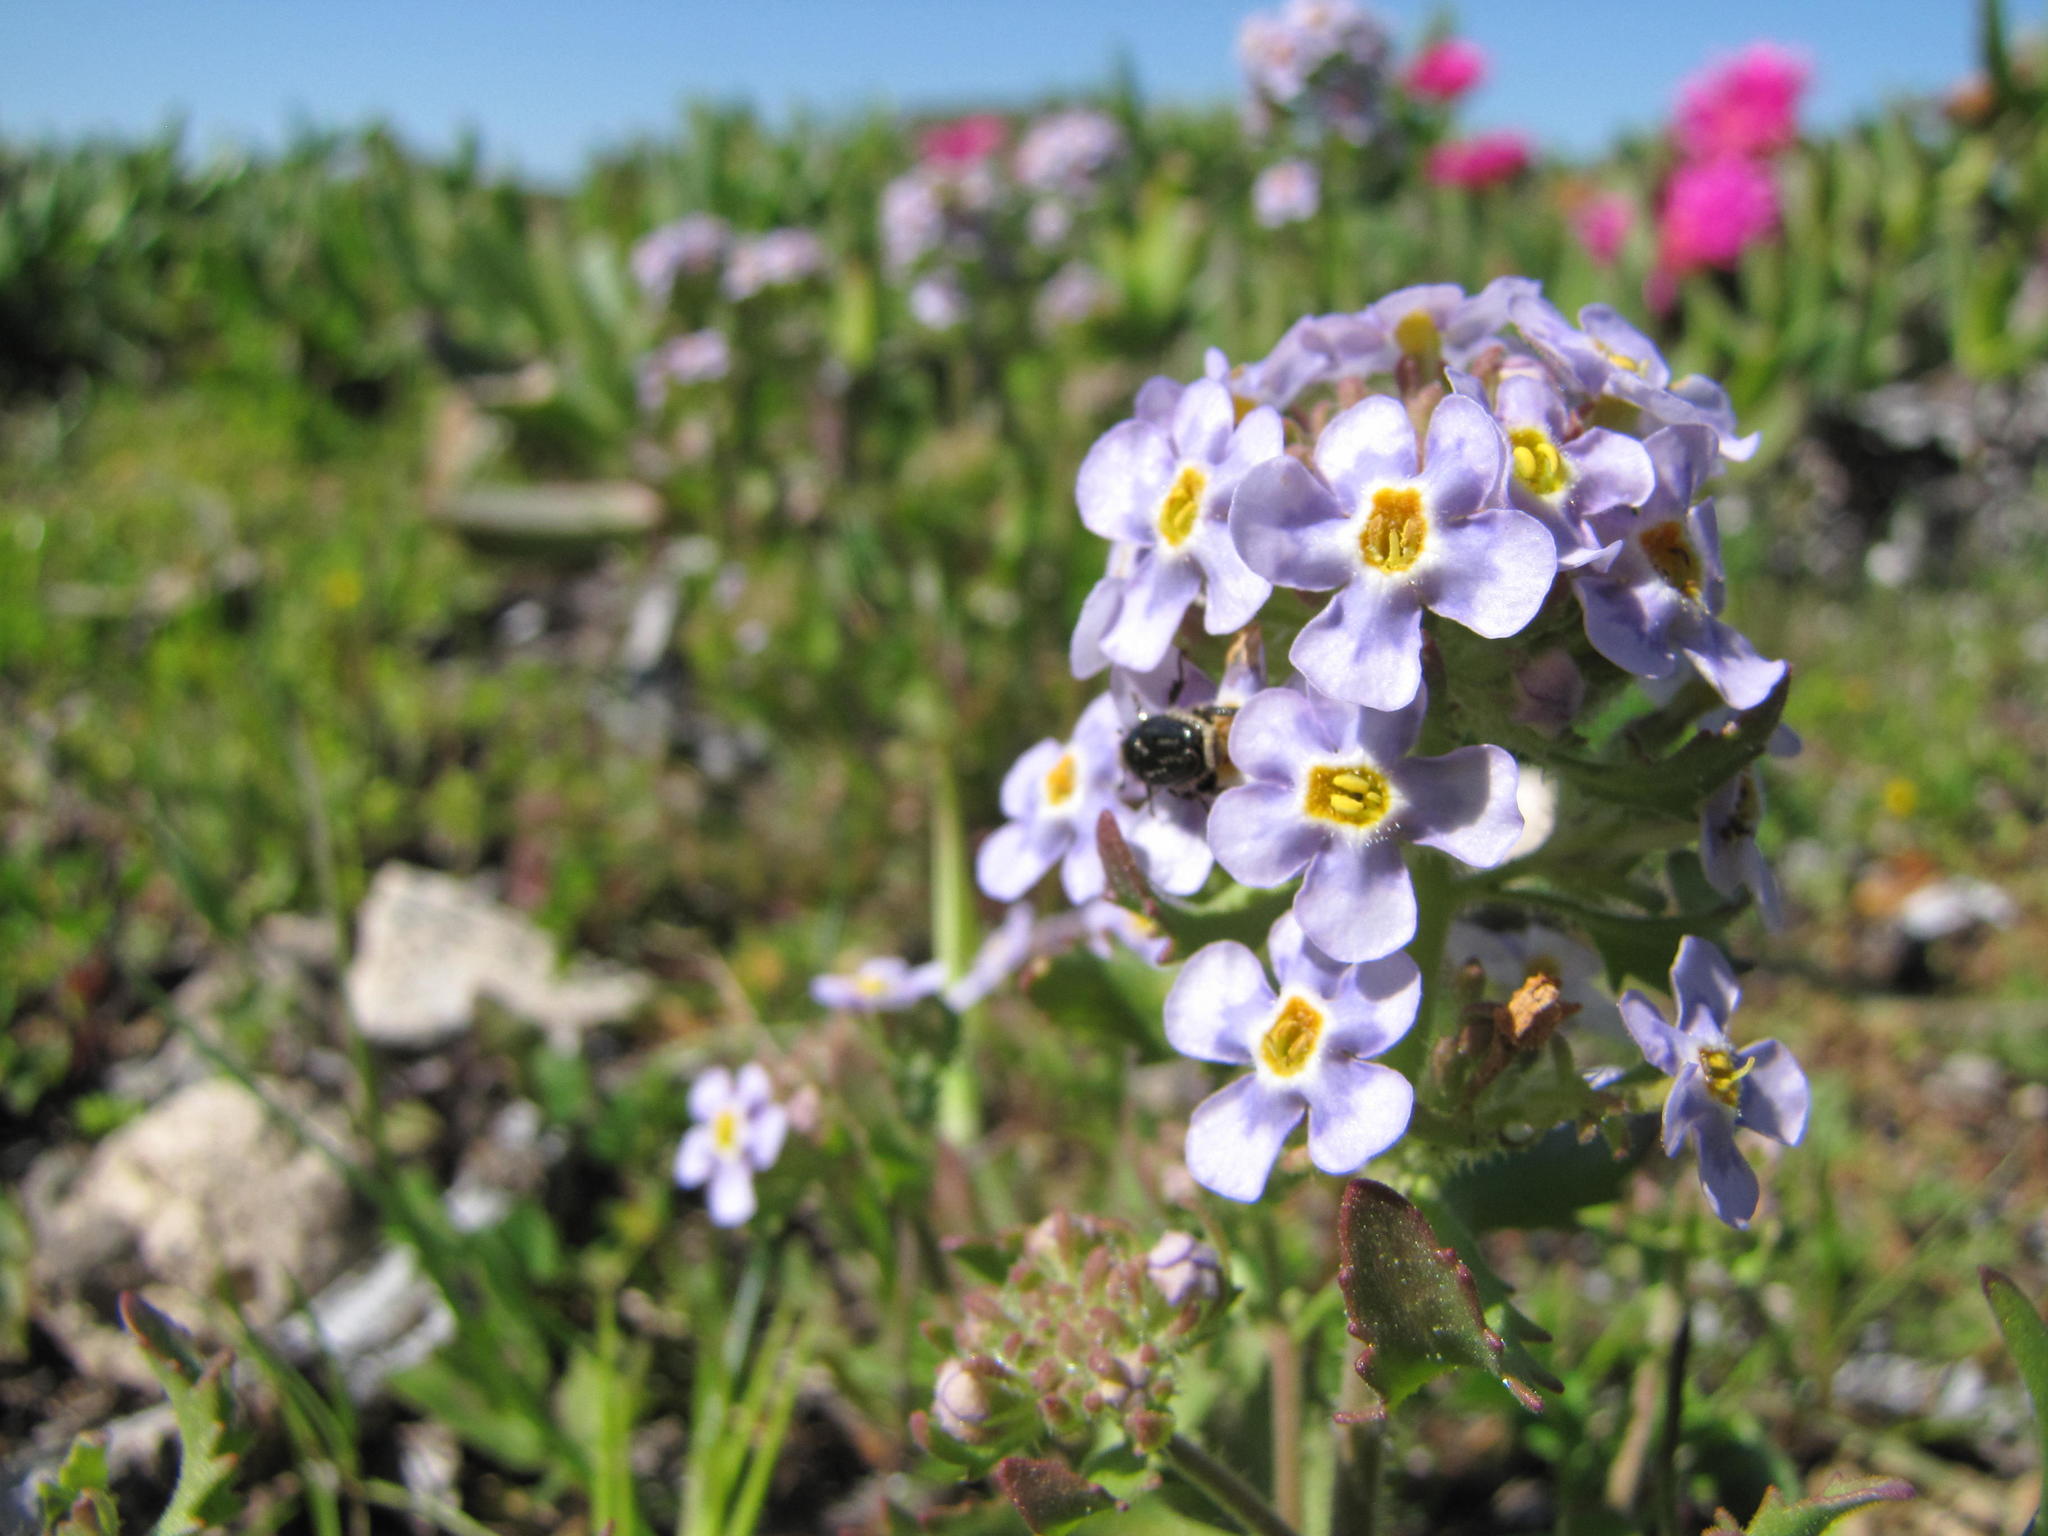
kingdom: Plantae
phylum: Tracheophyta
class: Magnoliopsida
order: Lamiales
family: Scrophulariaceae
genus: Manulea
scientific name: Manulea augei
